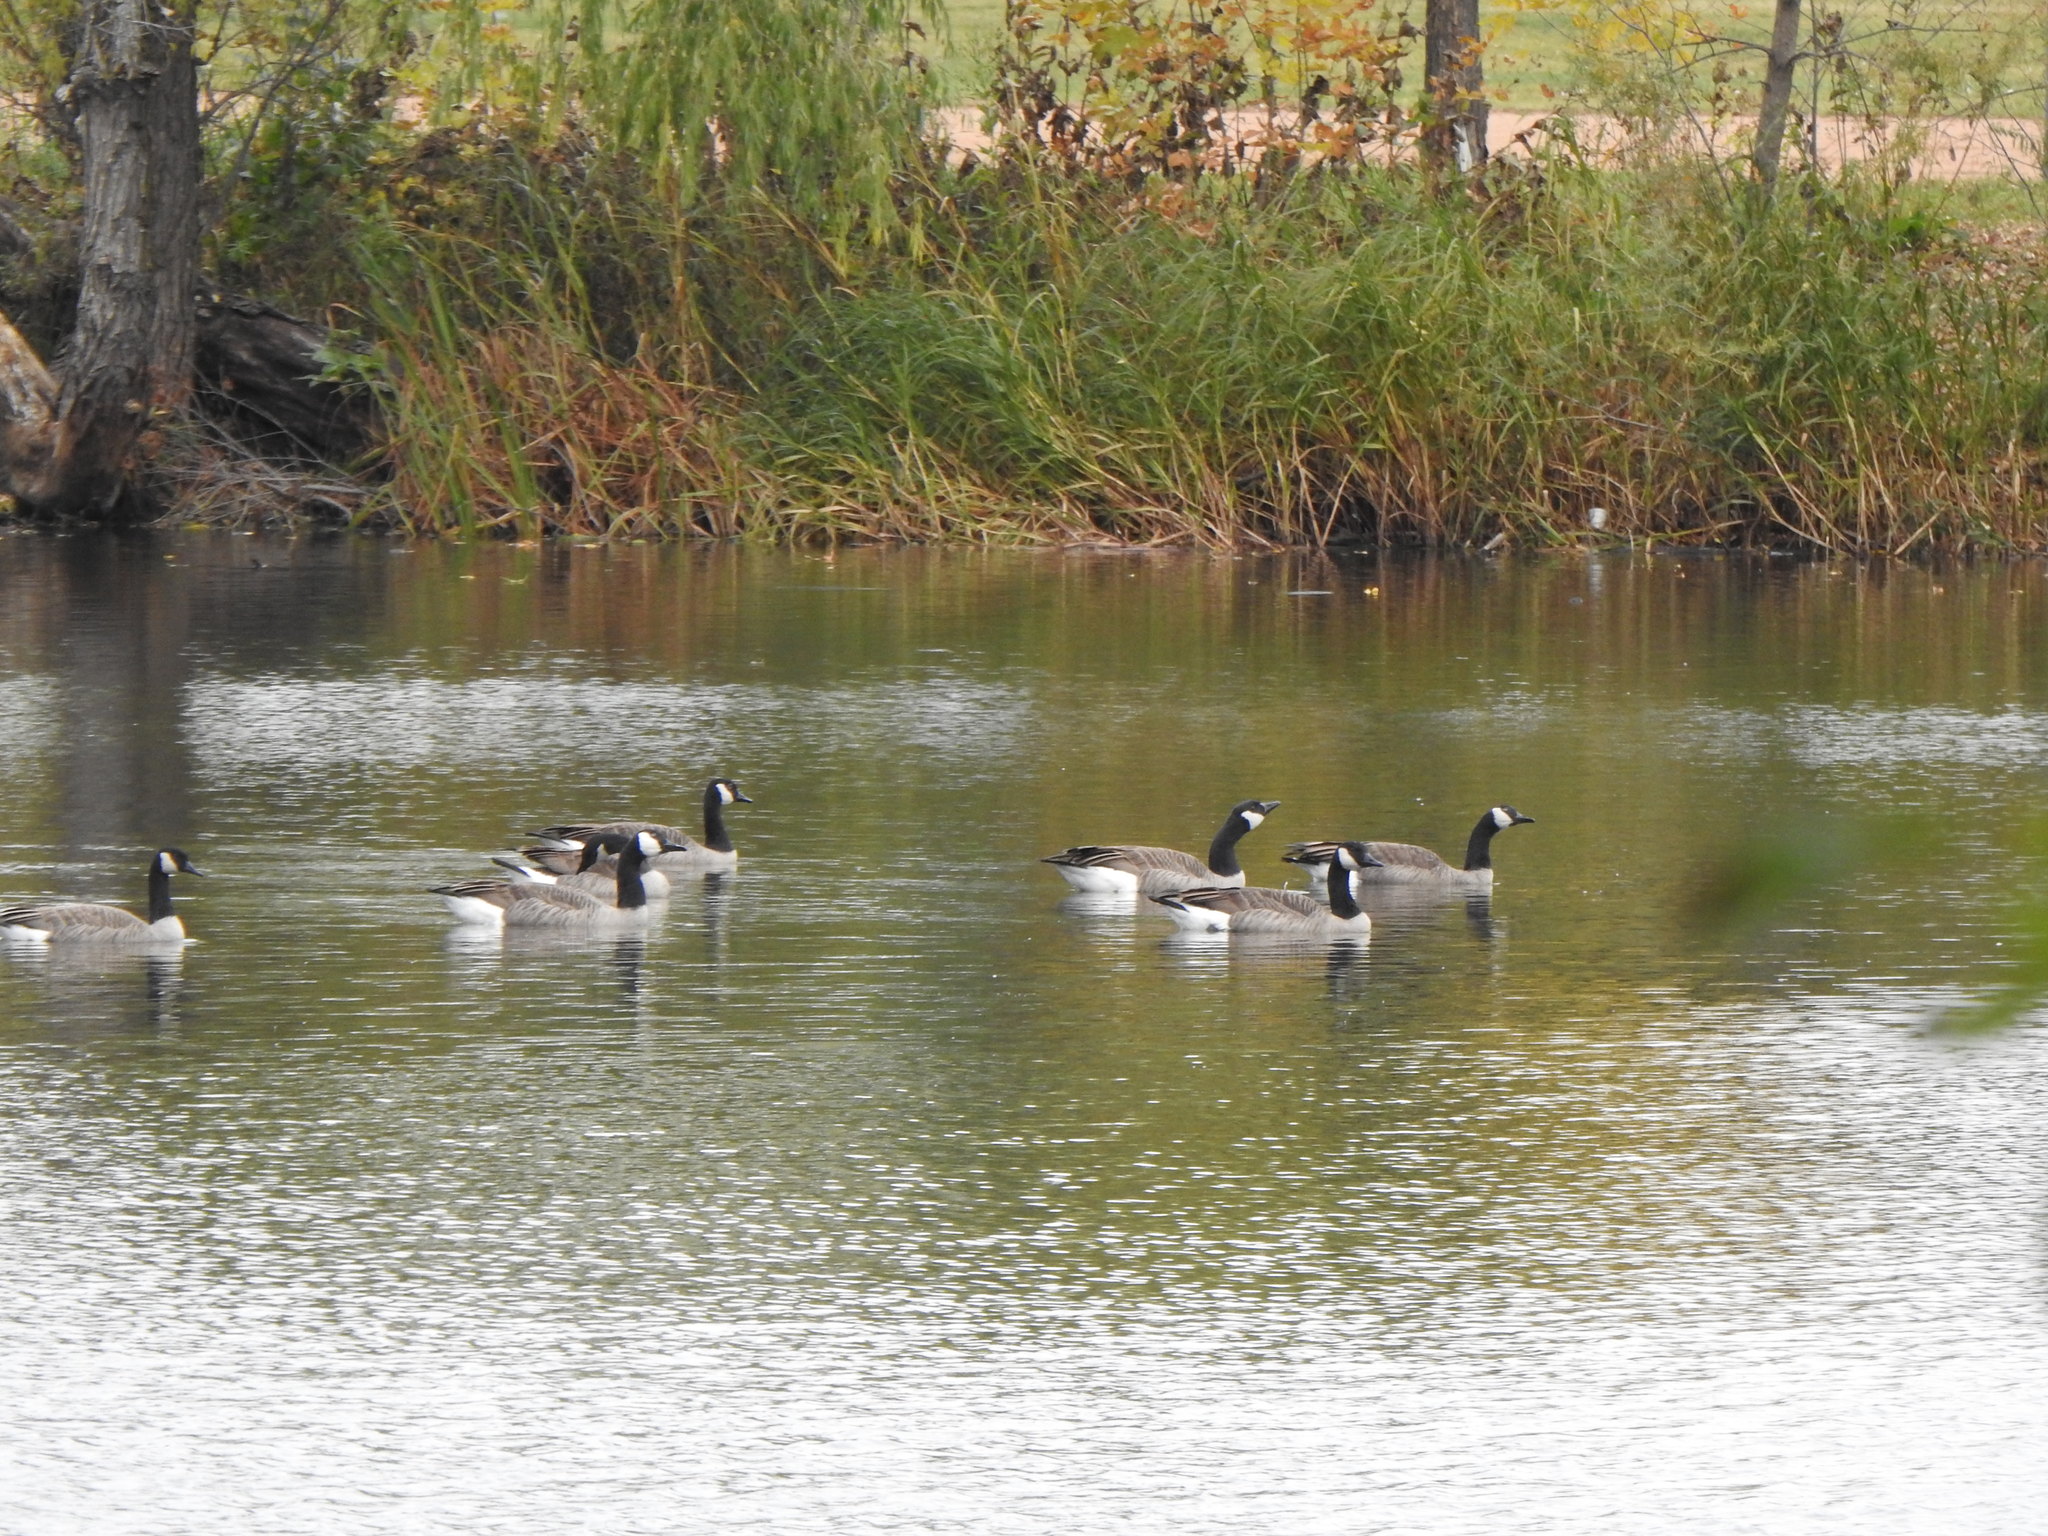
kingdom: Animalia
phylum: Chordata
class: Aves
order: Anseriformes
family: Anatidae
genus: Branta
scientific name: Branta canadensis
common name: Canada goose
